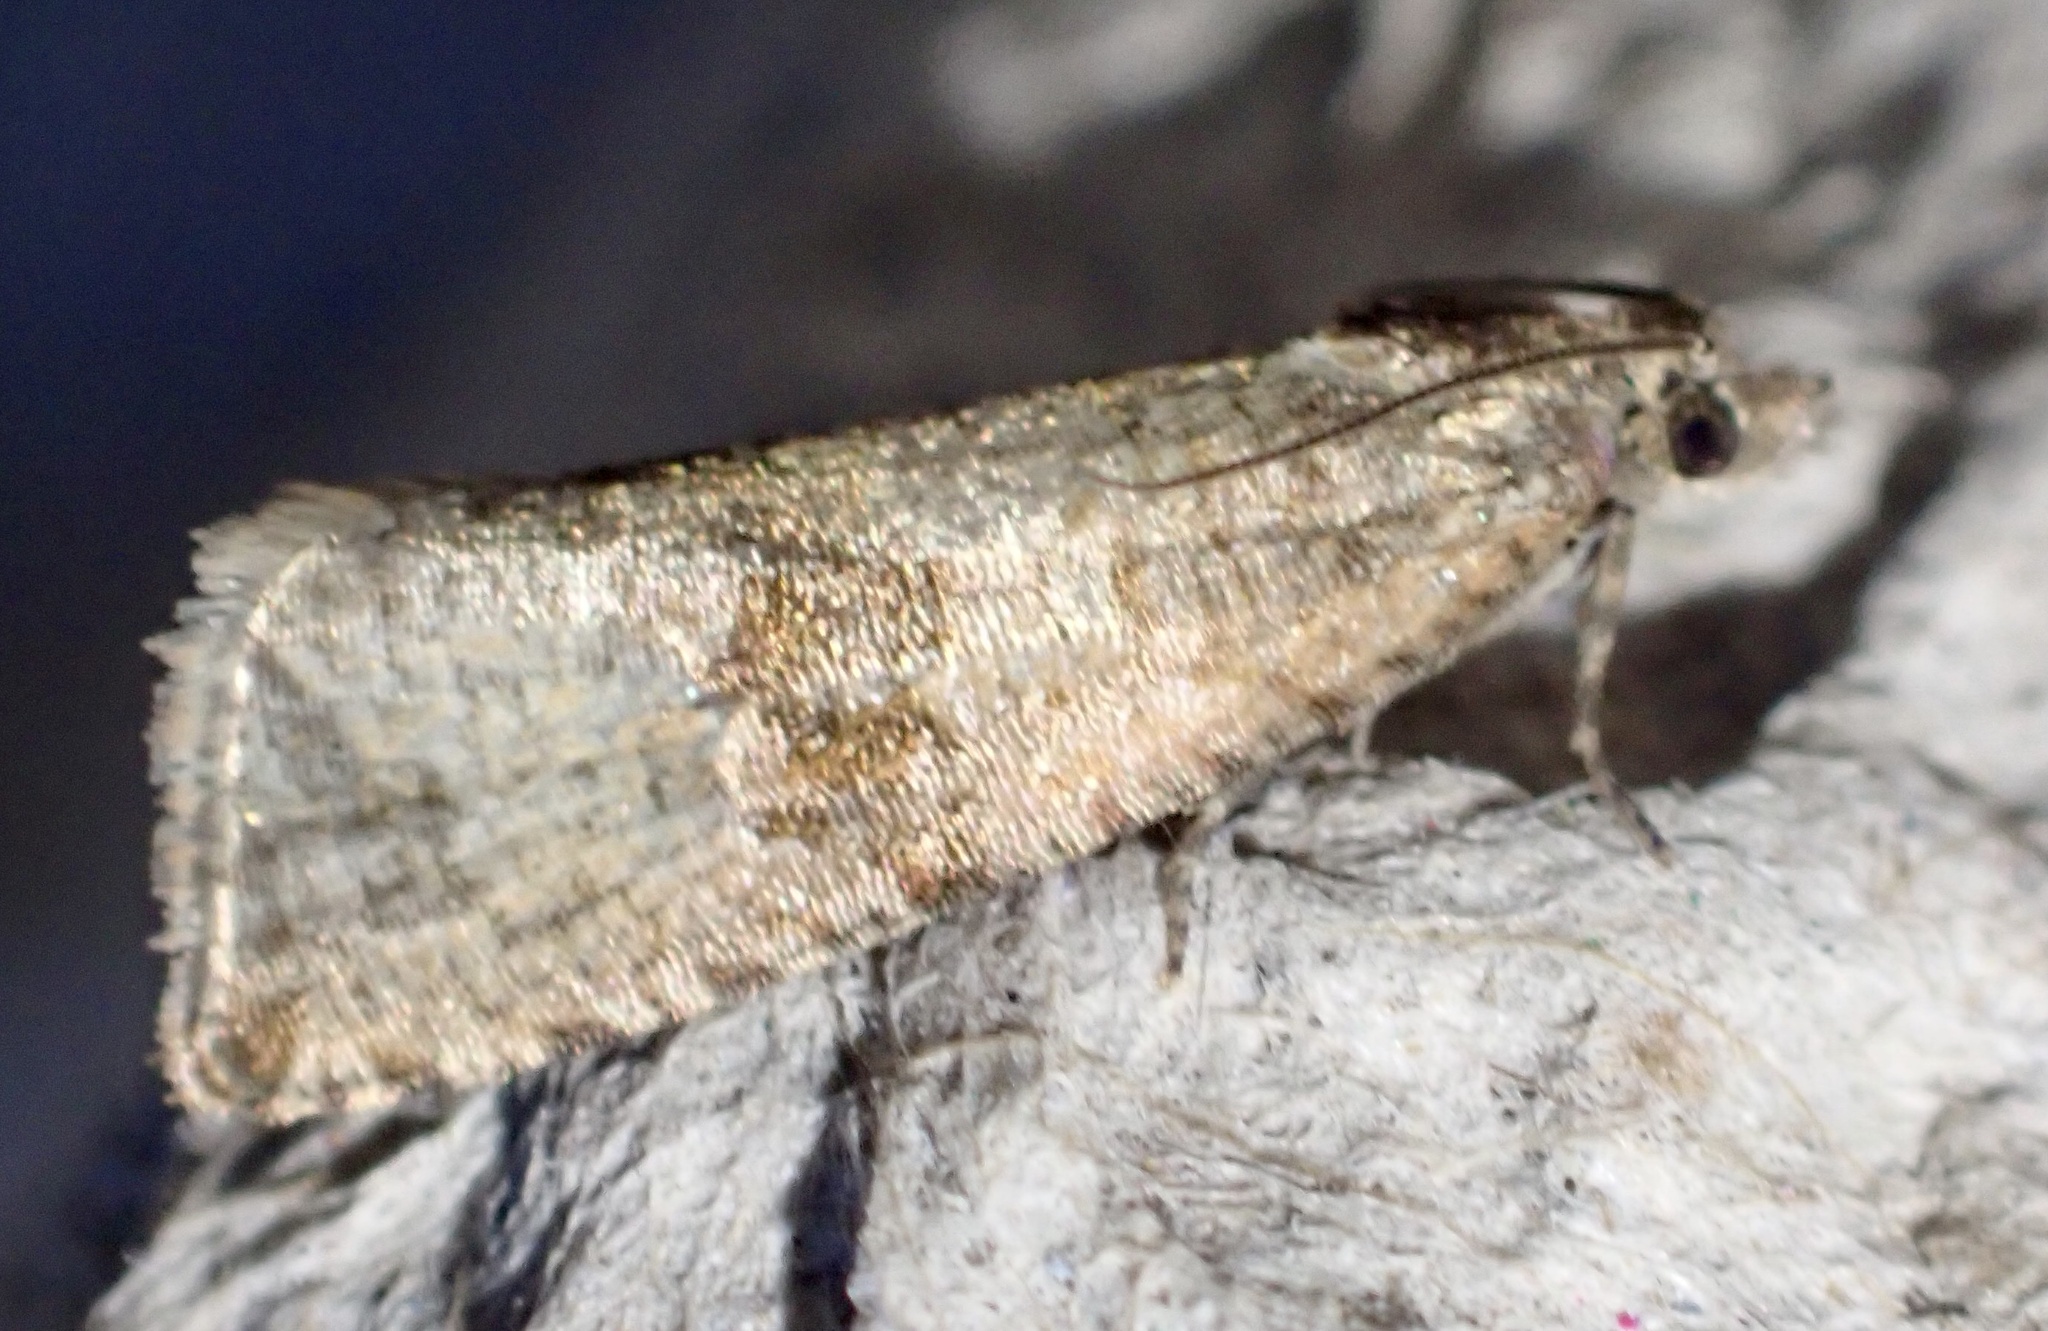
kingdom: Animalia
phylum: Arthropoda
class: Insecta
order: Lepidoptera
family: Tortricidae
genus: Celypha
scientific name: Celypha striana
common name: Barred marble
